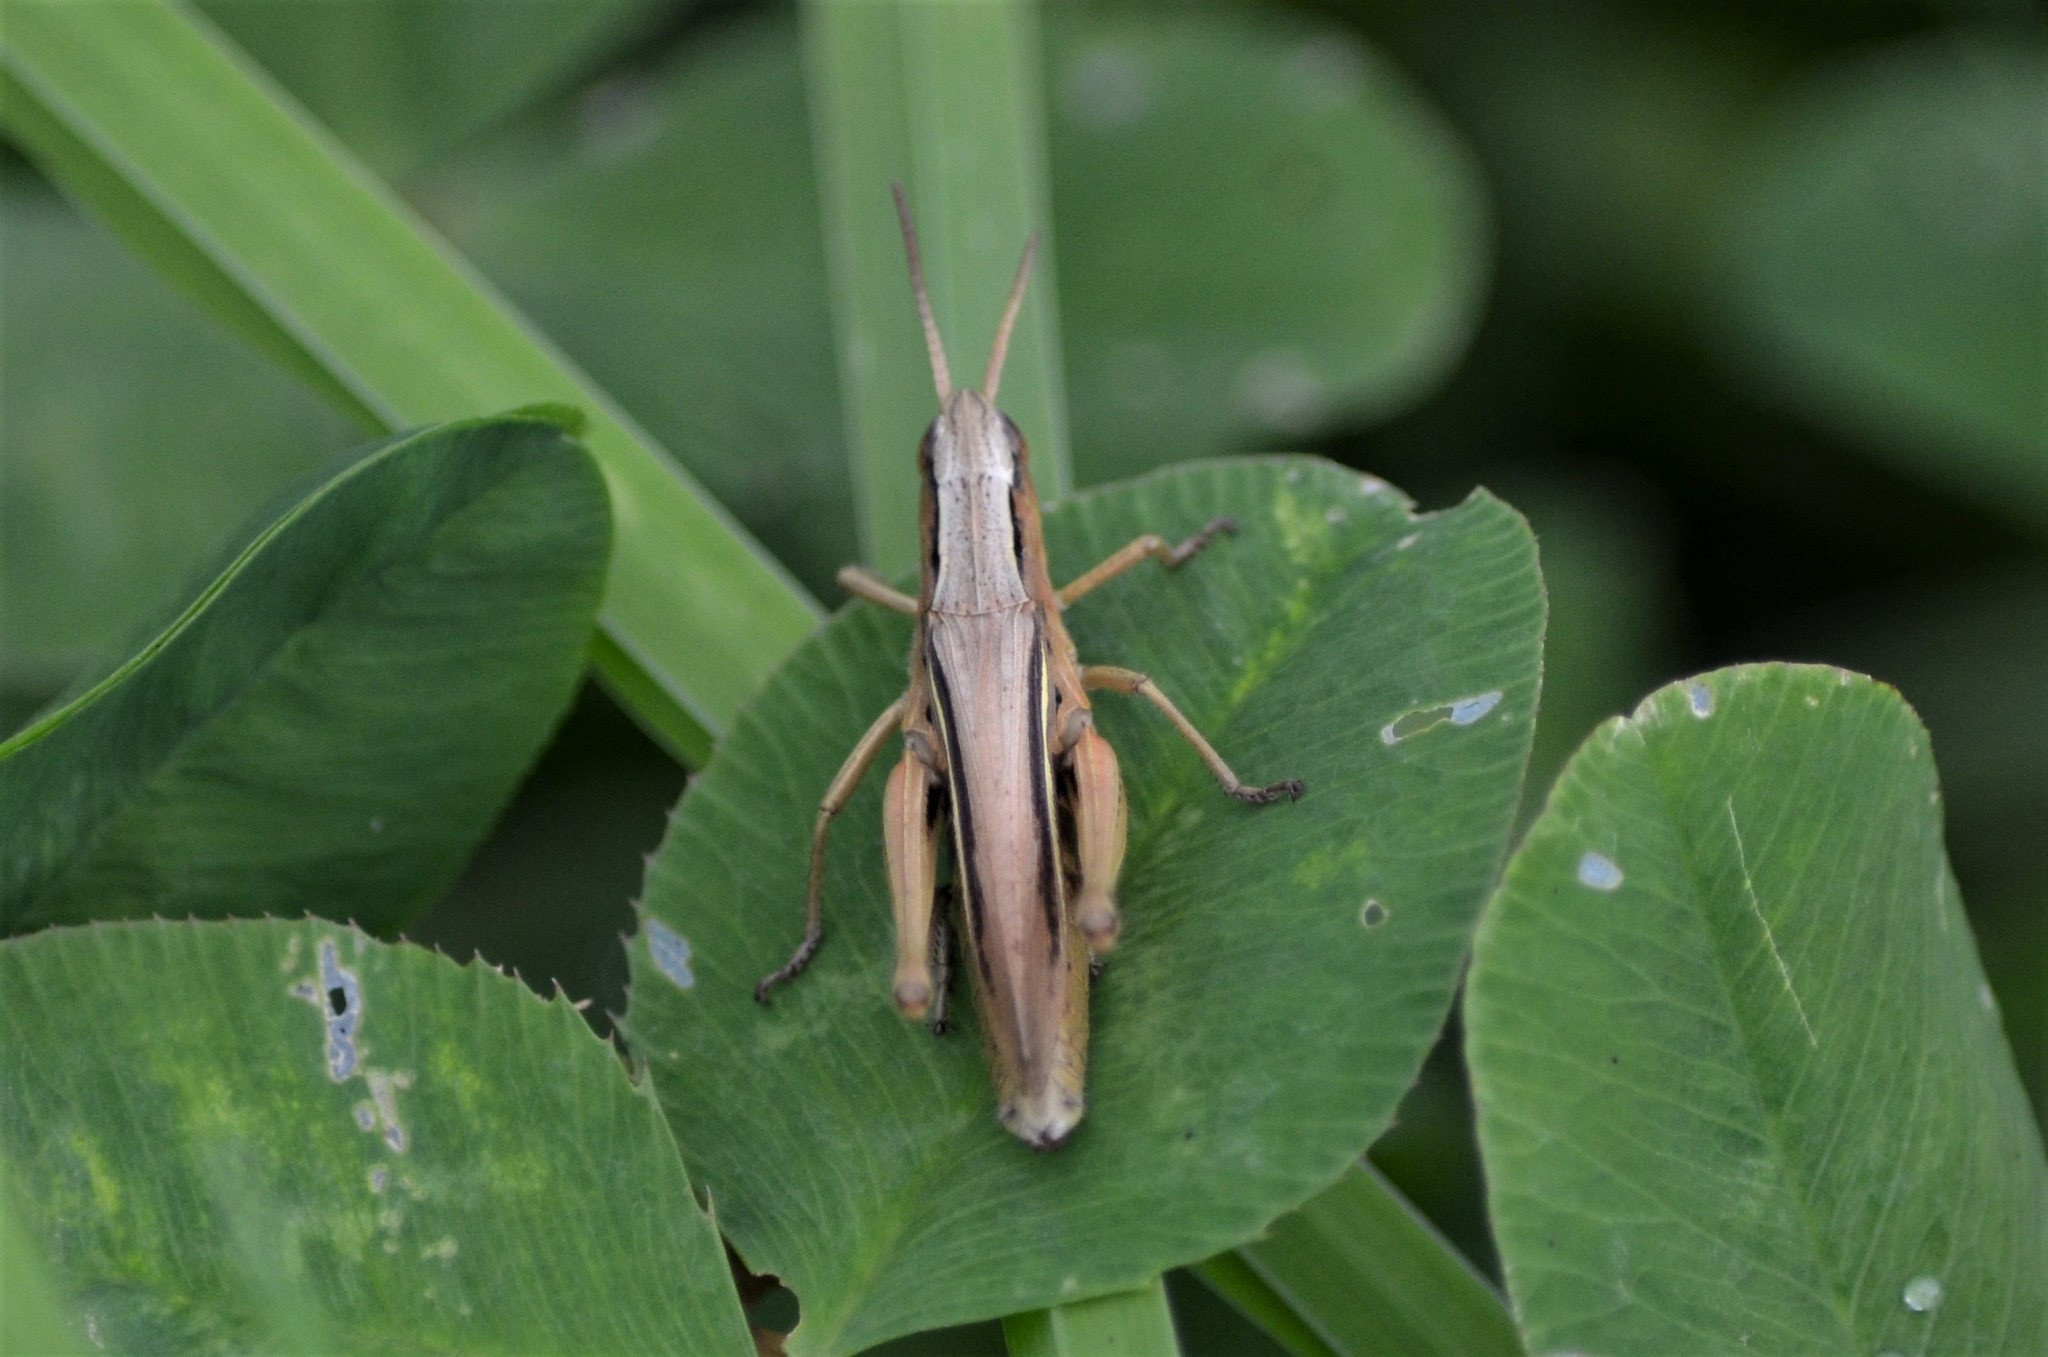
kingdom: Animalia
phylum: Arthropoda
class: Insecta
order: Orthoptera
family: Acrididae
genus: Chorthippus
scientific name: Chorthippus albomarginatus
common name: Lesser marsh grasshopper
